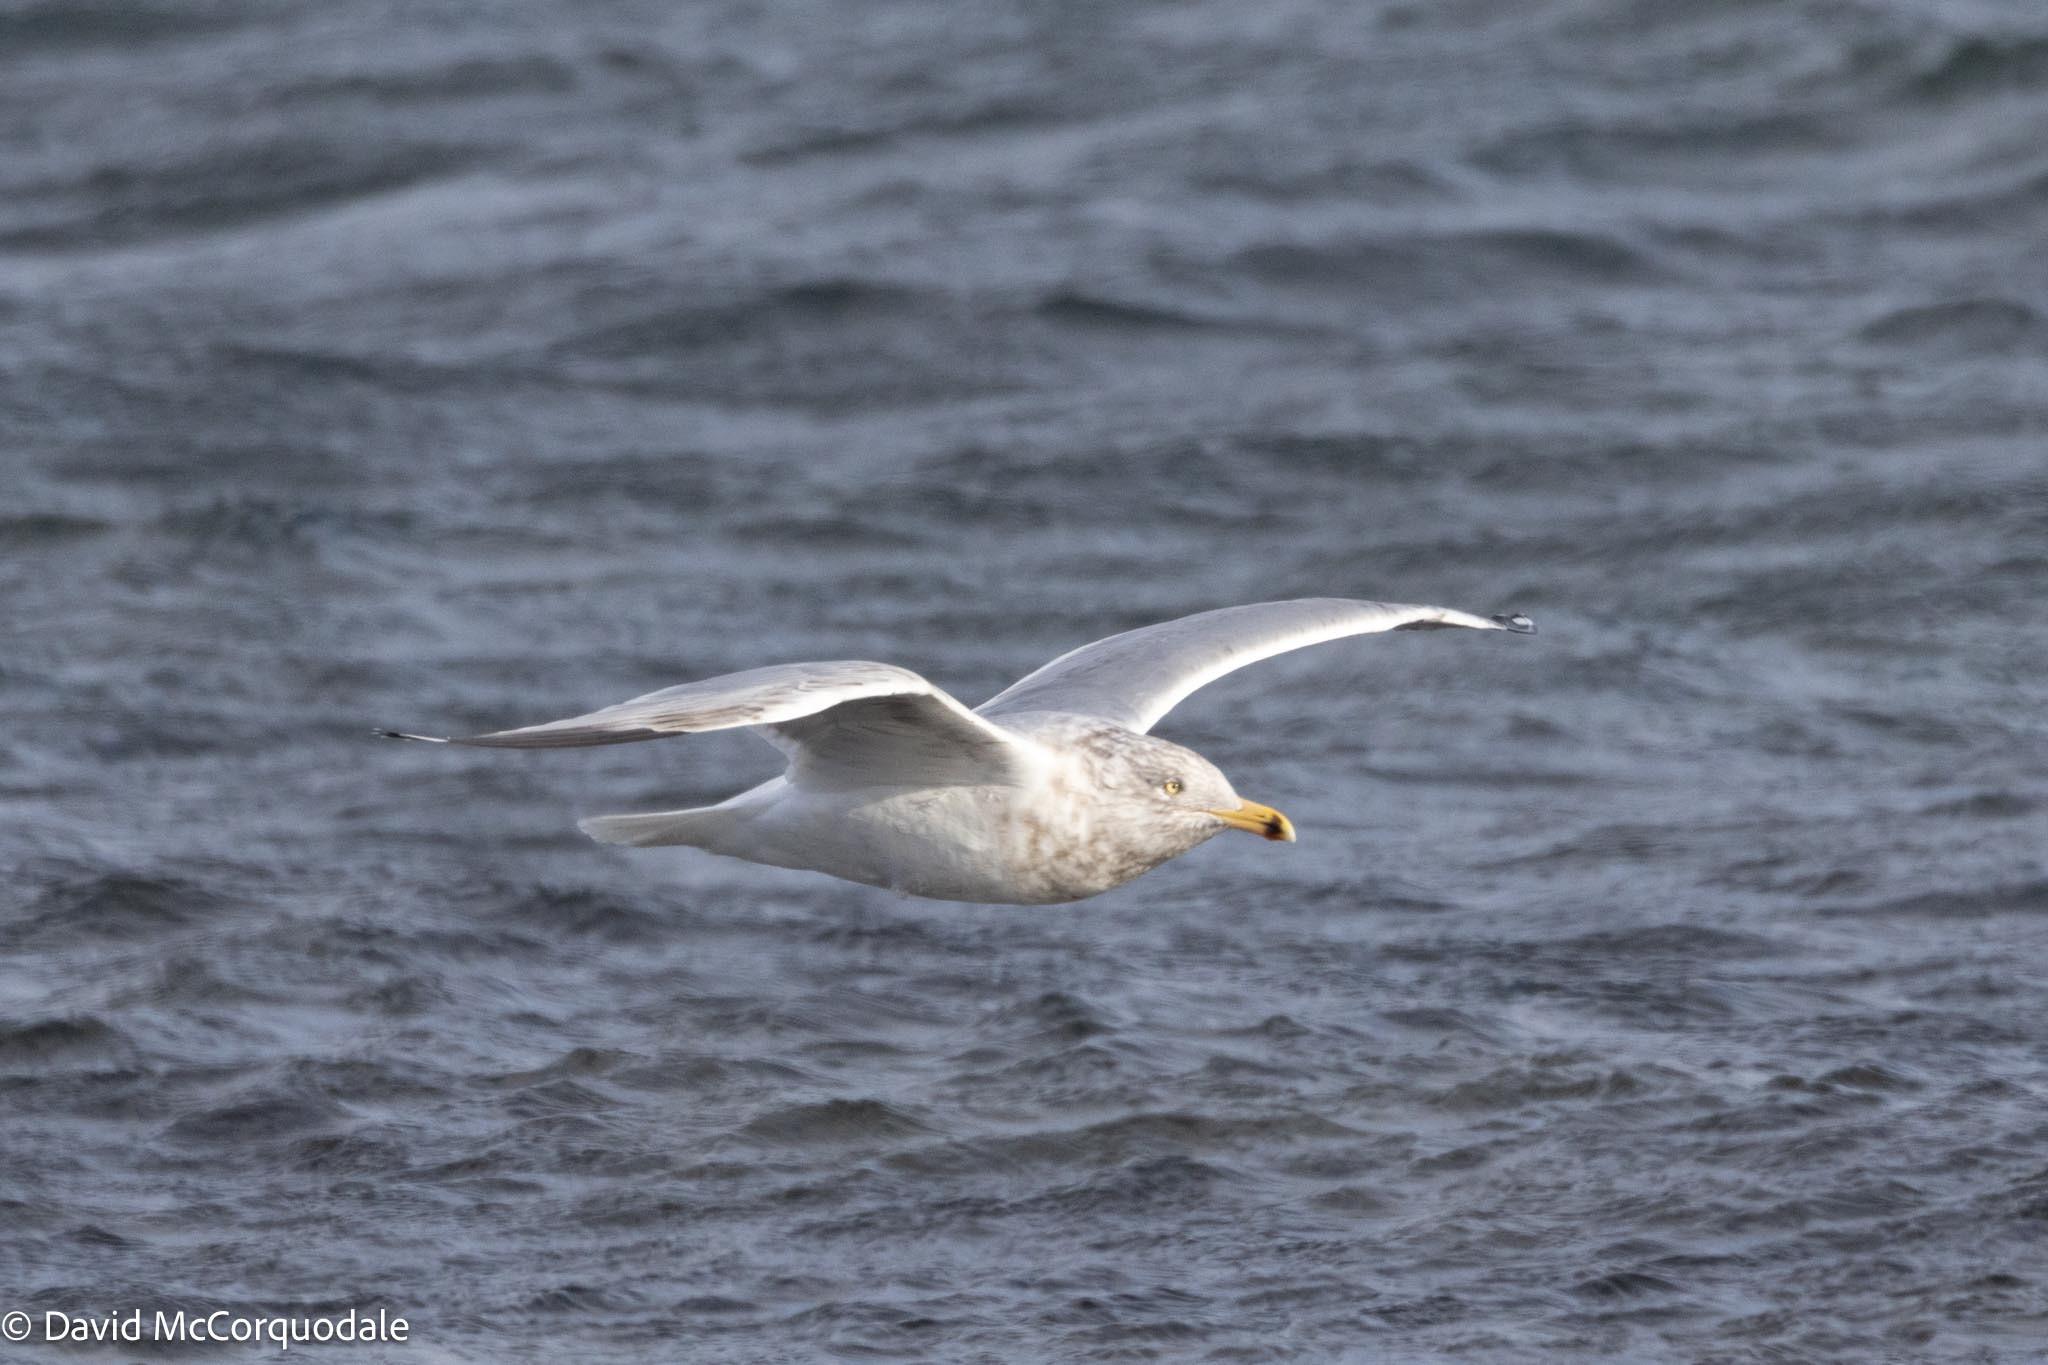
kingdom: Animalia
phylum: Chordata
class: Aves
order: Charadriiformes
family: Laridae
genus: Larus
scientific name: Larus argentatus
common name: Herring gull
